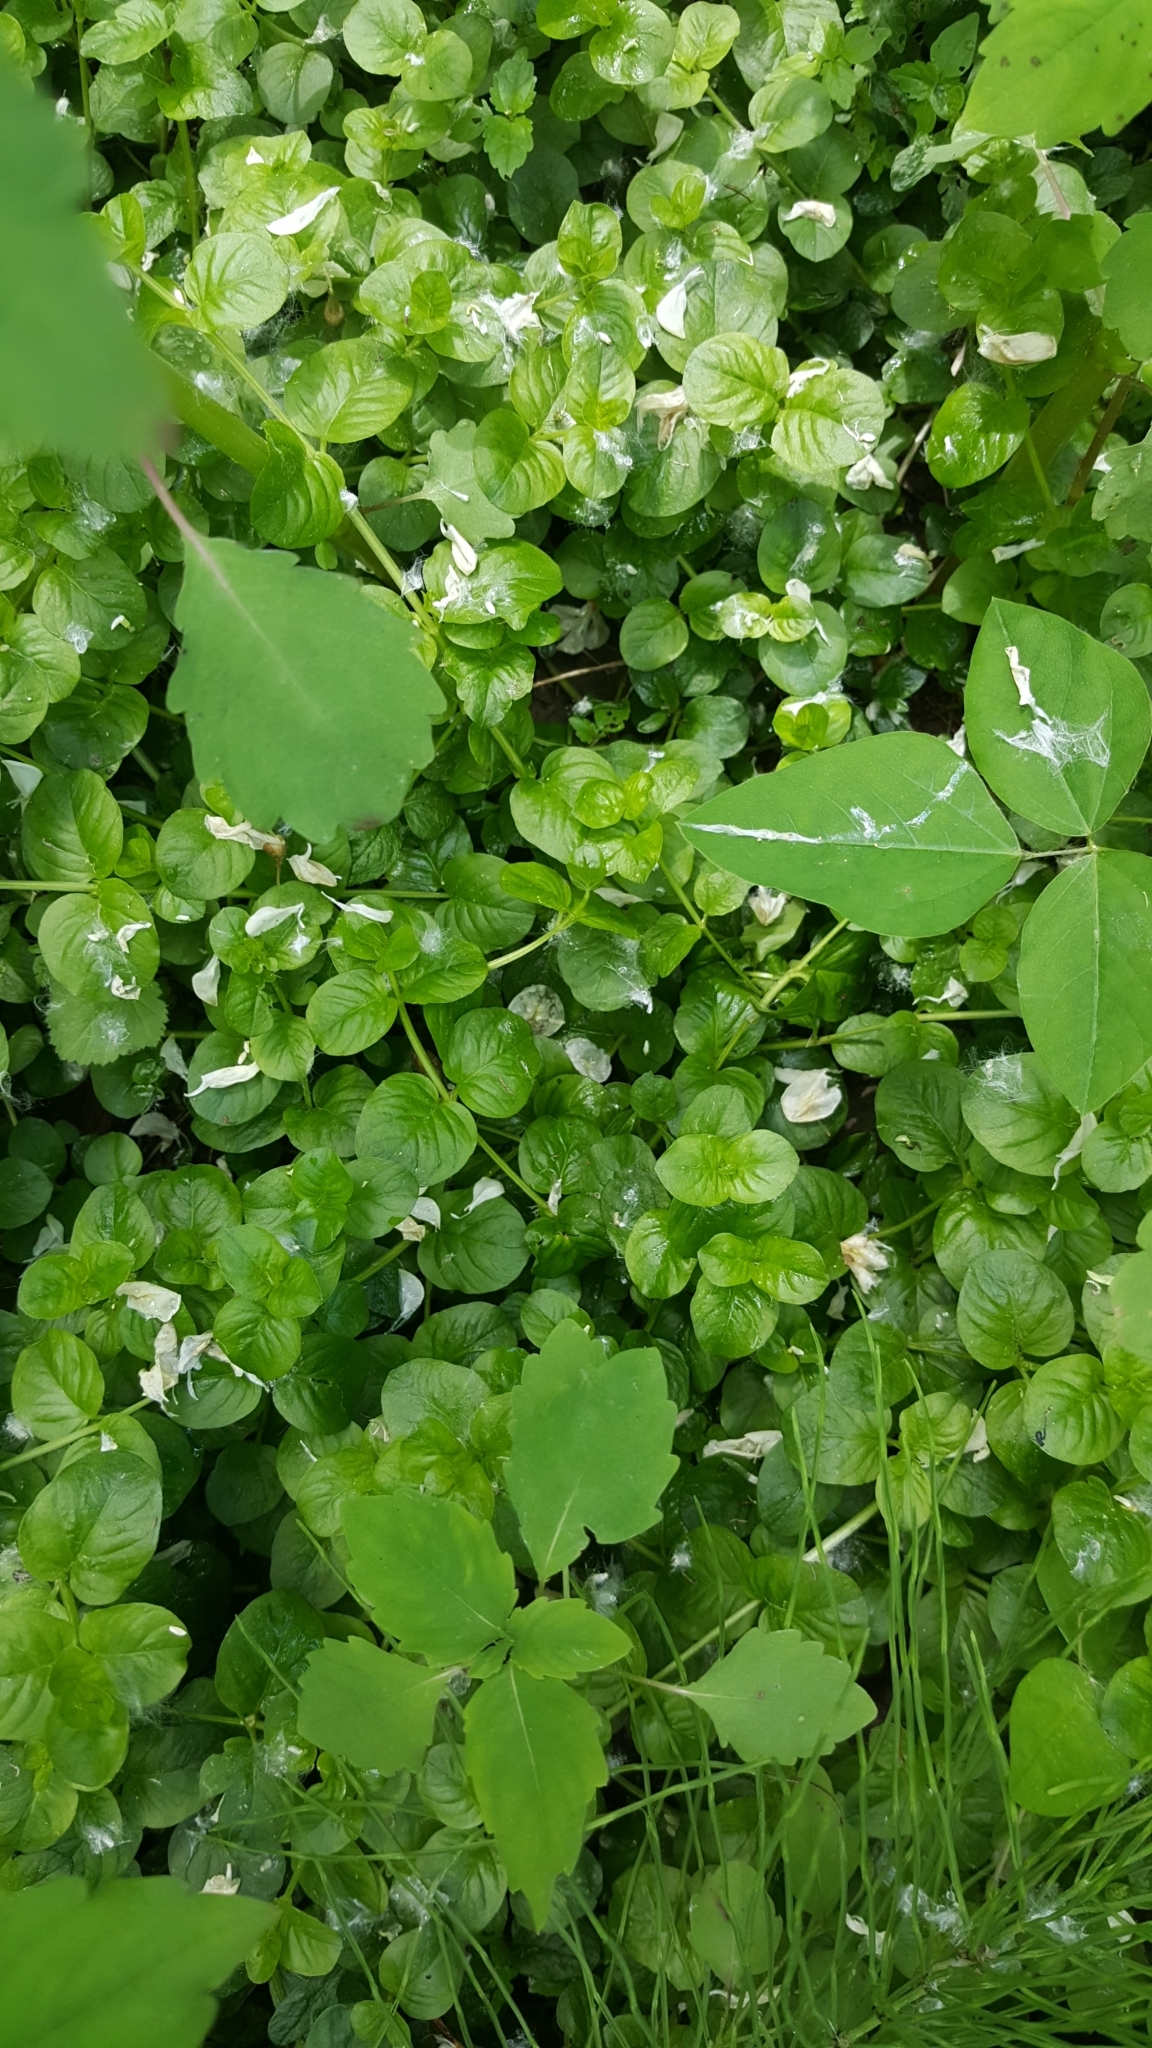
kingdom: Plantae
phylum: Tracheophyta
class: Magnoliopsida
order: Ericales
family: Primulaceae
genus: Lysimachia
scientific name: Lysimachia nummularia
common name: Moneywort
